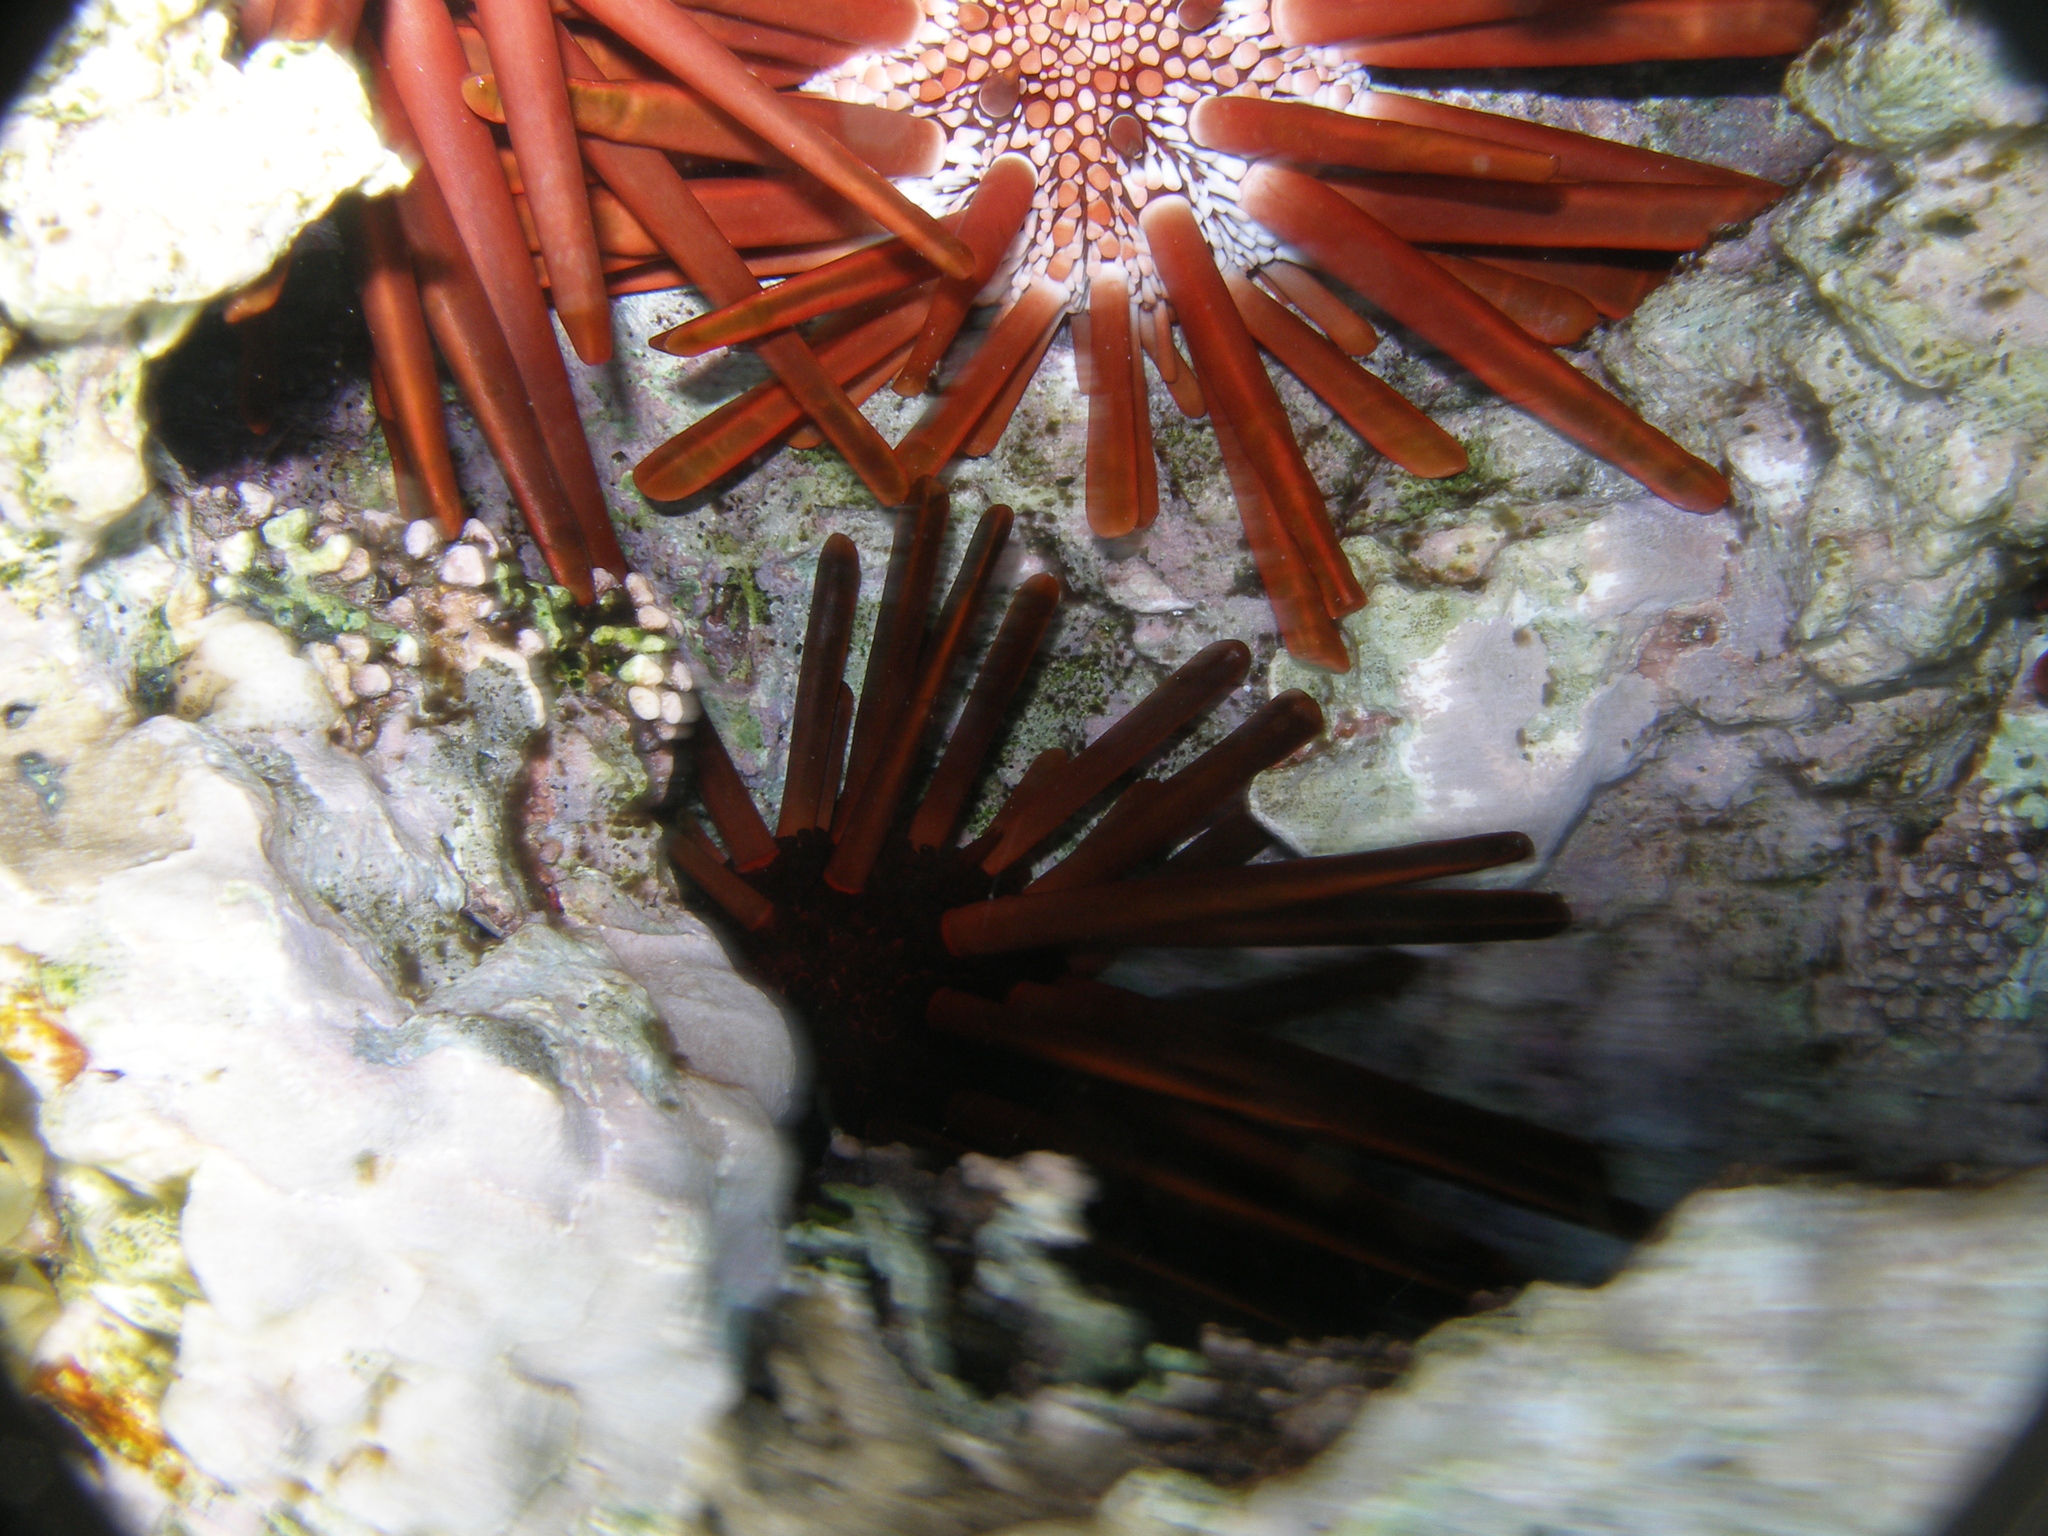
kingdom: Animalia
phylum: Echinodermata
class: Echinoidea
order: Camarodonta
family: Echinometridae
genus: Heterocentrotus
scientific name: Heterocentrotus mamillatus
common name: Slate pencil urchin
